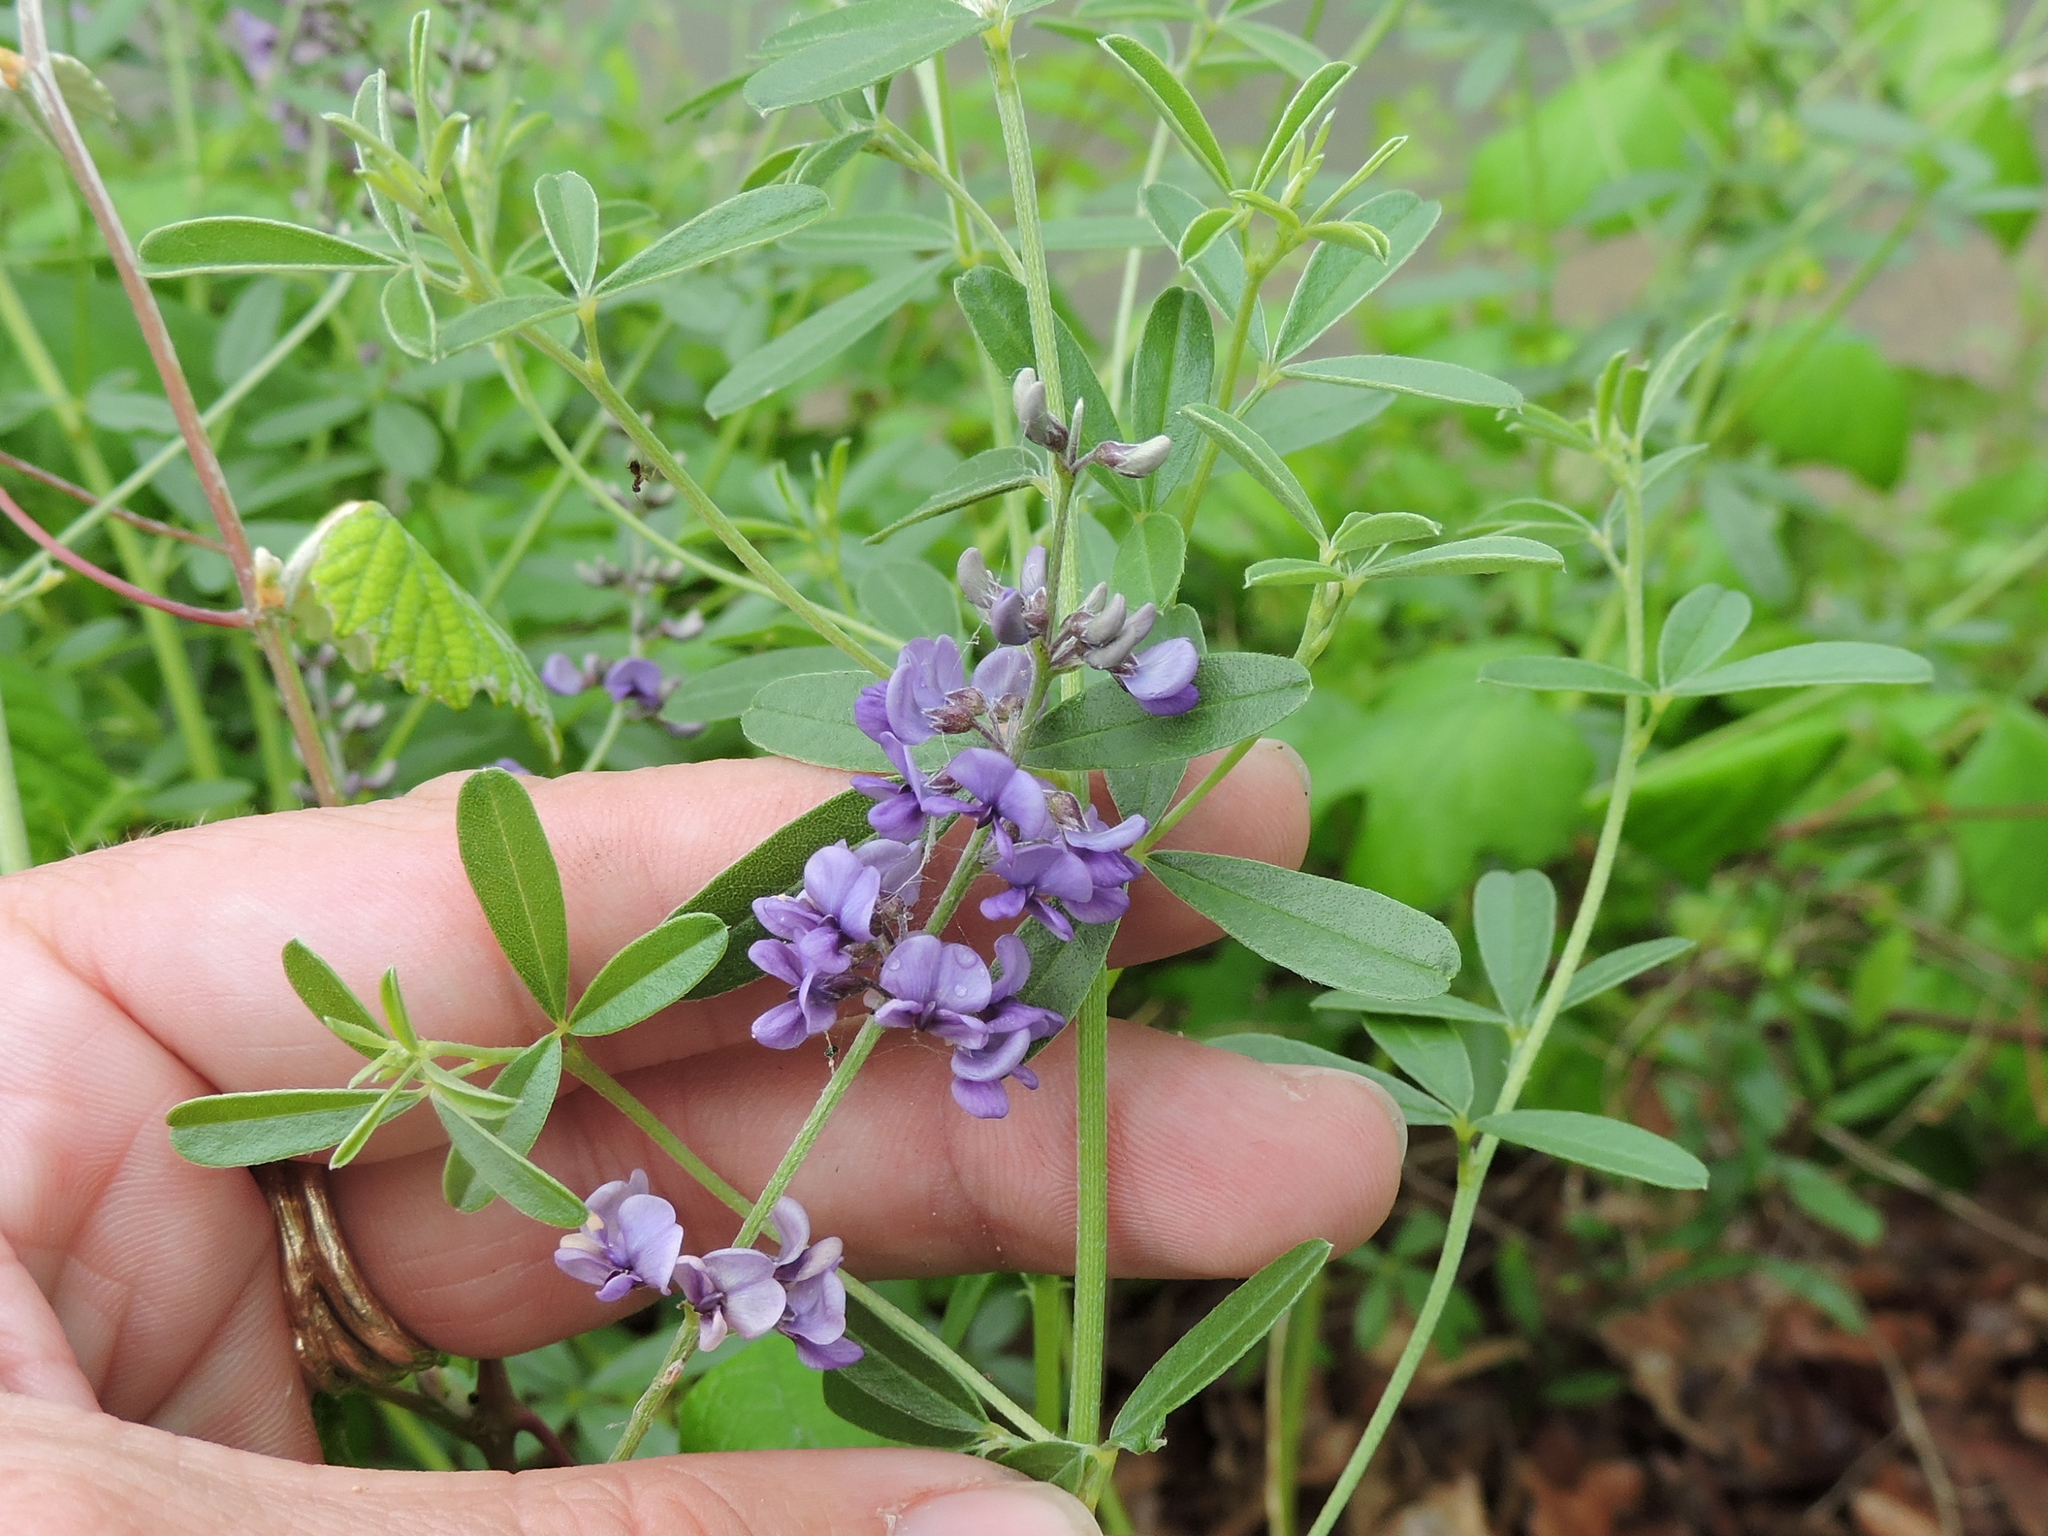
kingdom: Plantae
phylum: Tracheophyta
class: Magnoliopsida
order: Fabales
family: Fabaceae
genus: Pediomelum
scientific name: Pediomelum tenuiflorum
